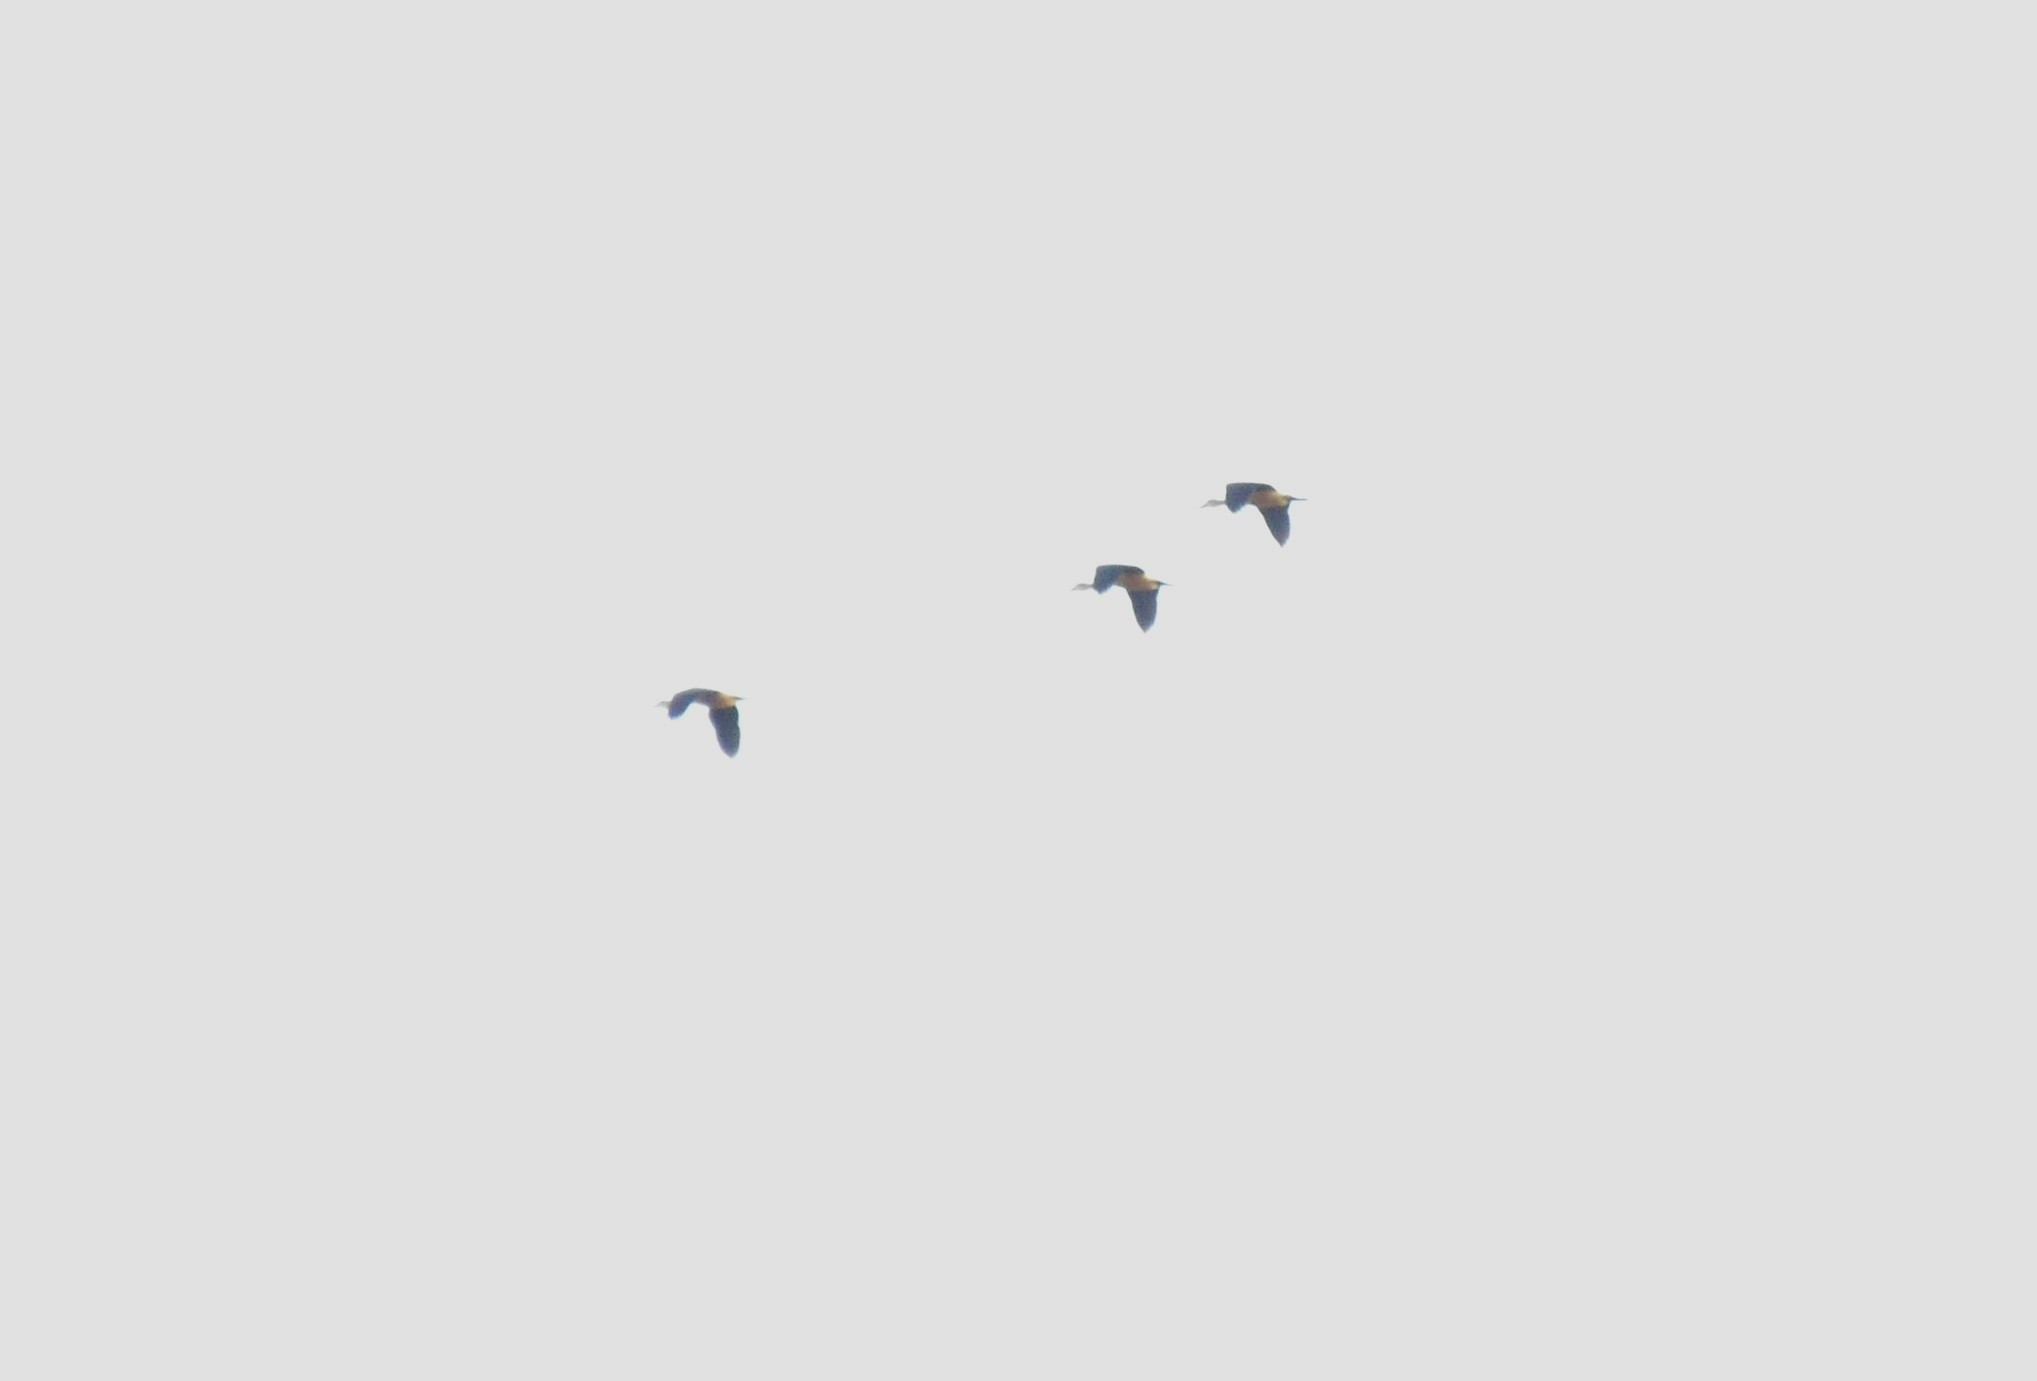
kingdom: Animalia
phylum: Chordata
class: Aves
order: Anseriformes
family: Anatidae
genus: Dendrocygna
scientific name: Dendrocygna javanica
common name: Lesser whistling-duck
